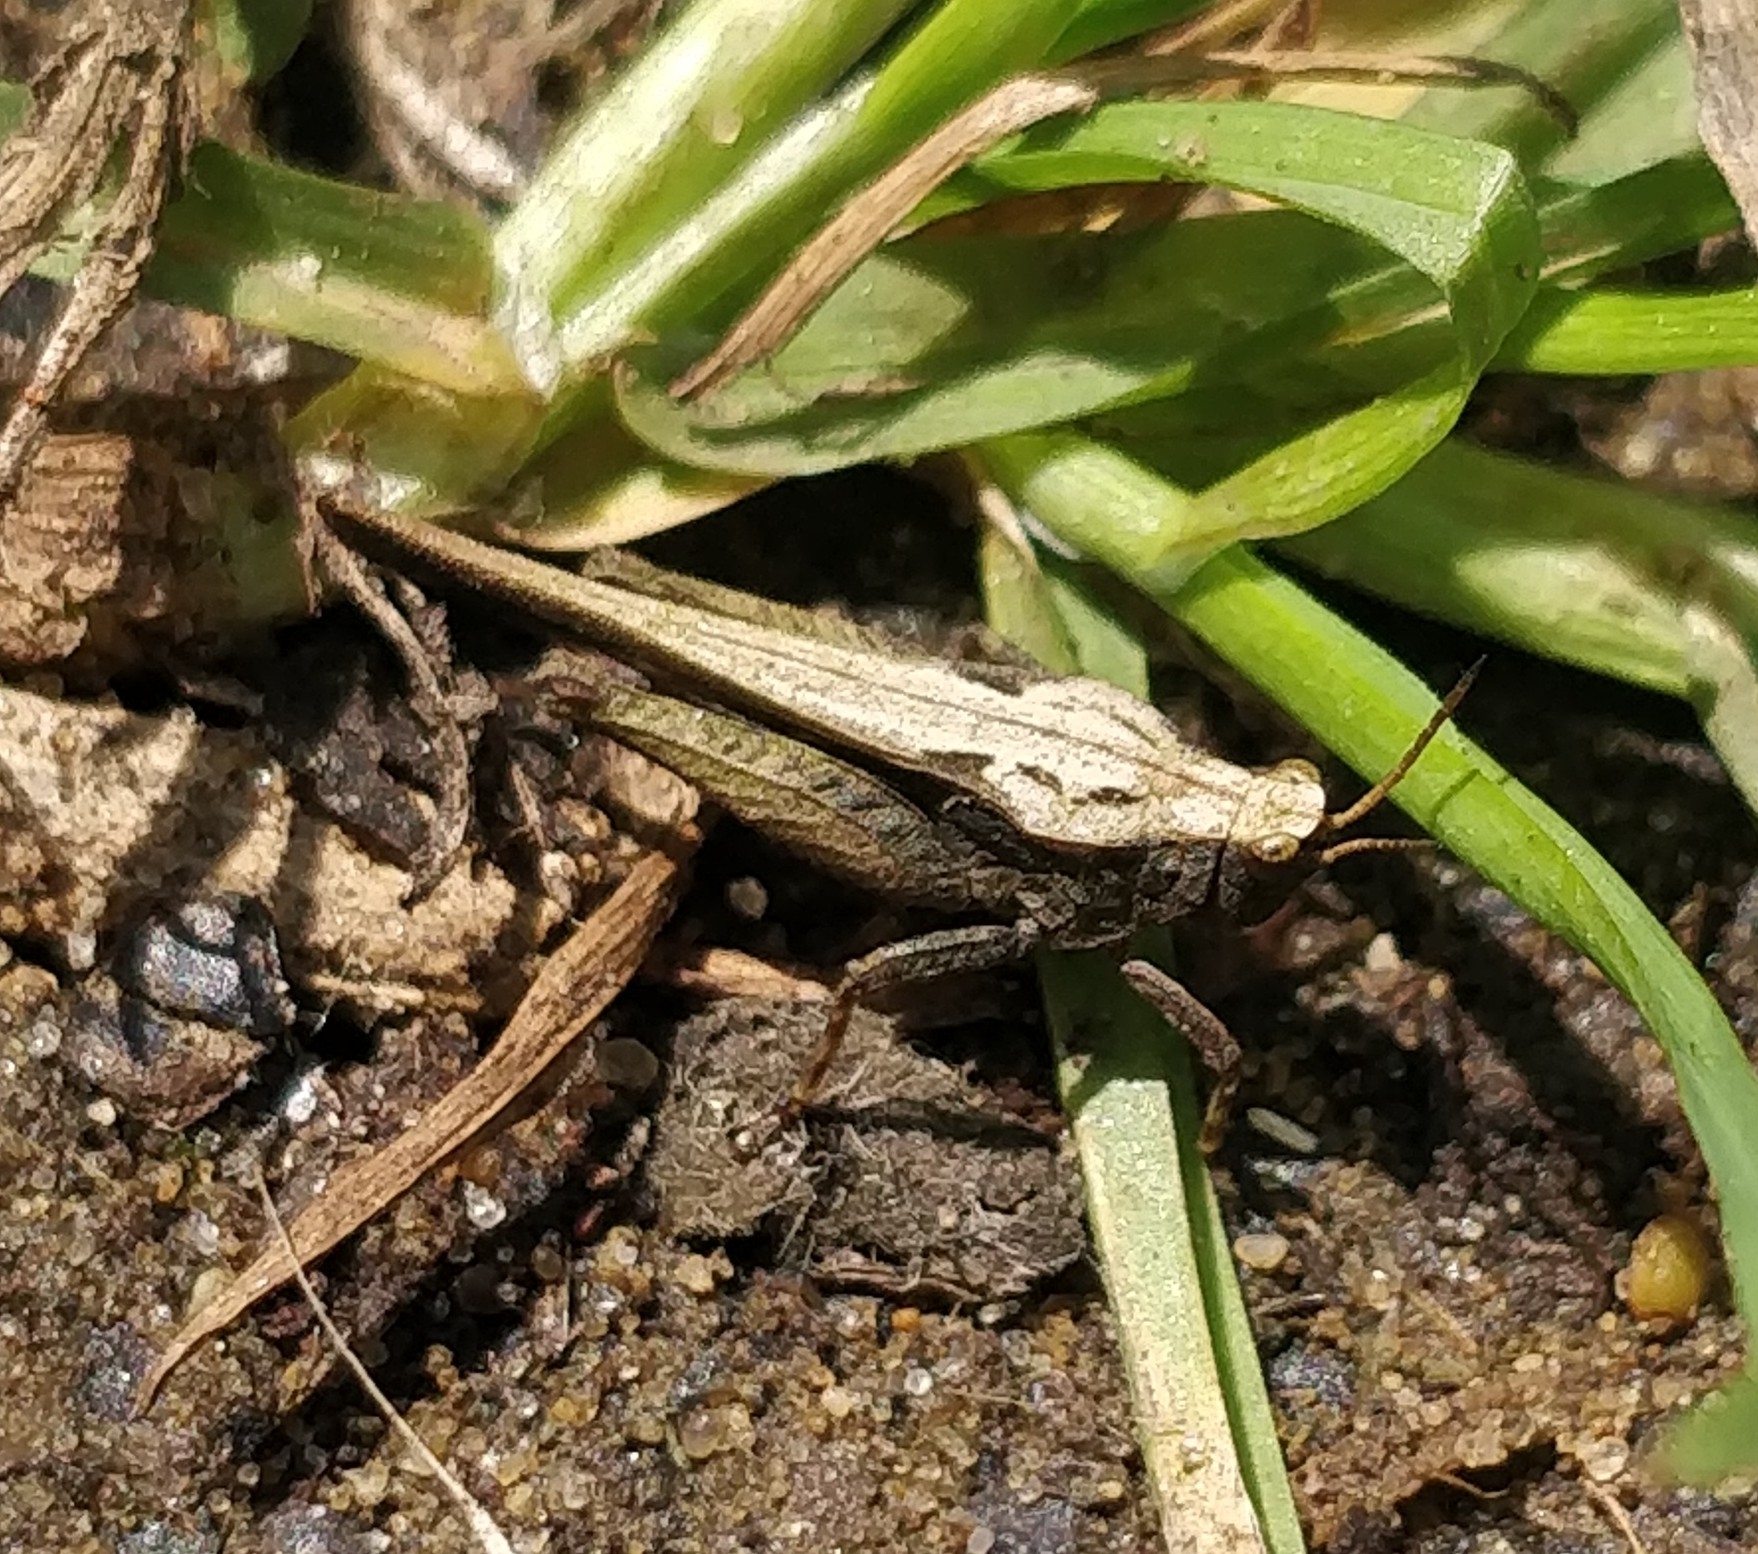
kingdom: Animalia
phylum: Arthropoda
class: Insecta
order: Orthoptera
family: Tetrigidae
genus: Tetrix
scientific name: Tetrix subulata
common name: Slender ground-hopper
